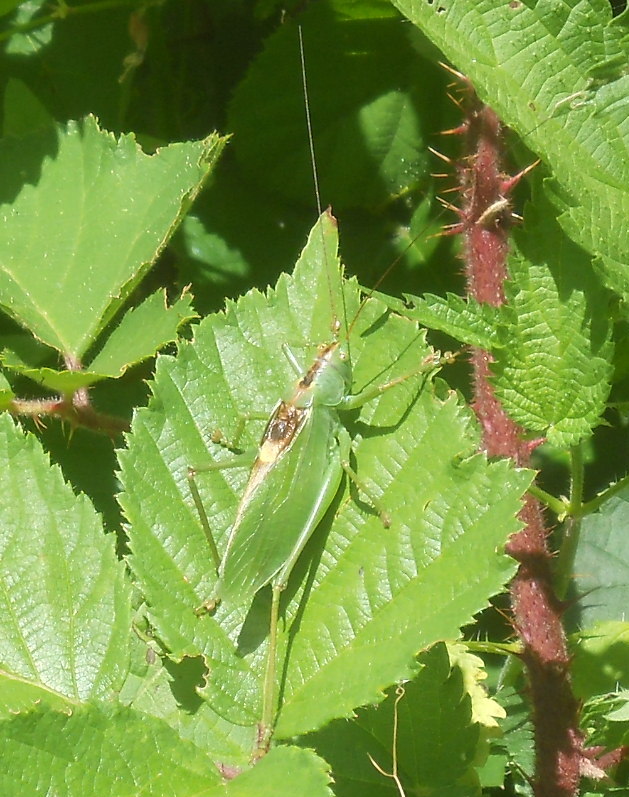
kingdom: Animalia
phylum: Arthropoda
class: Insecta
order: Orthoptera
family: Tettigoniidae
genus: Tettigonia
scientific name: Tettigonia cantans
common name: Upland green bush-cricket
